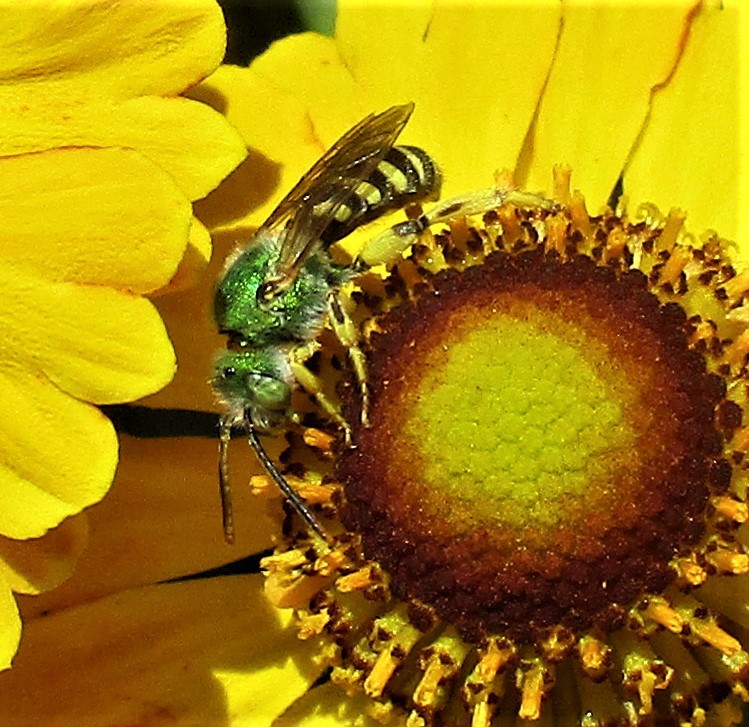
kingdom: Animalia
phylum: Arthropoda
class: Insecta
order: Hymenoptera
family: Halictidae
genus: Agapostemon
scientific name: Agapostemon texanus
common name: Texas striped sweat bee
